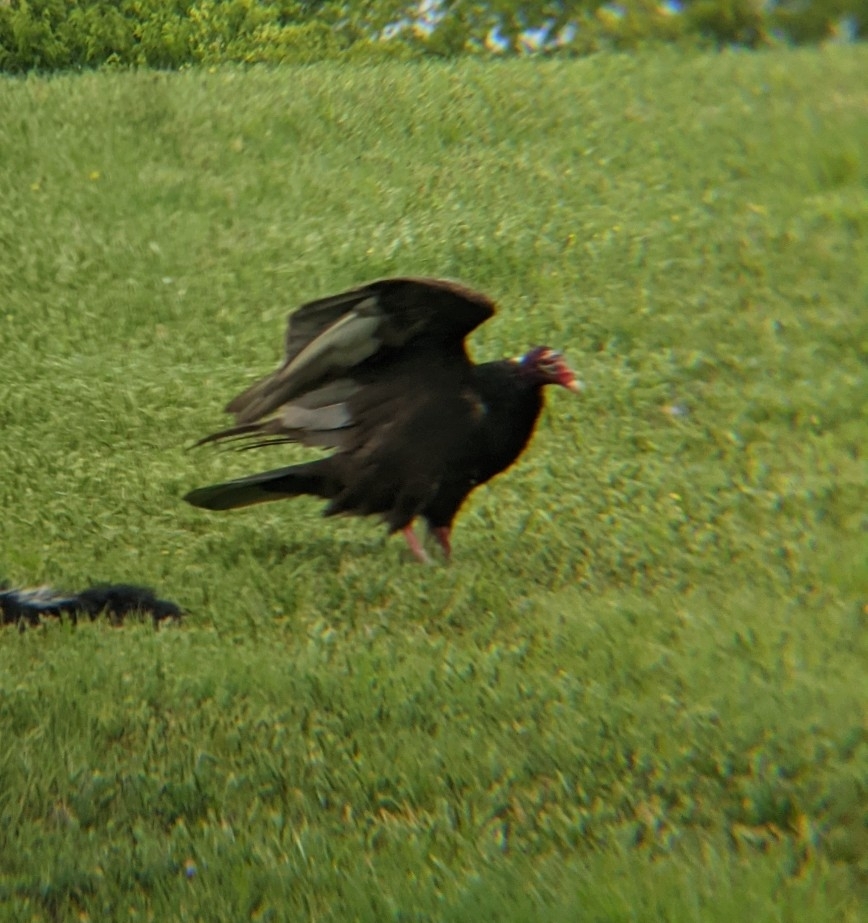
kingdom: Animalia
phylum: Chordata
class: Aves
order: Accipitriformes
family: Cathartidae
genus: Cathartes
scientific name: Cathartes aura
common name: Turkey vulture
